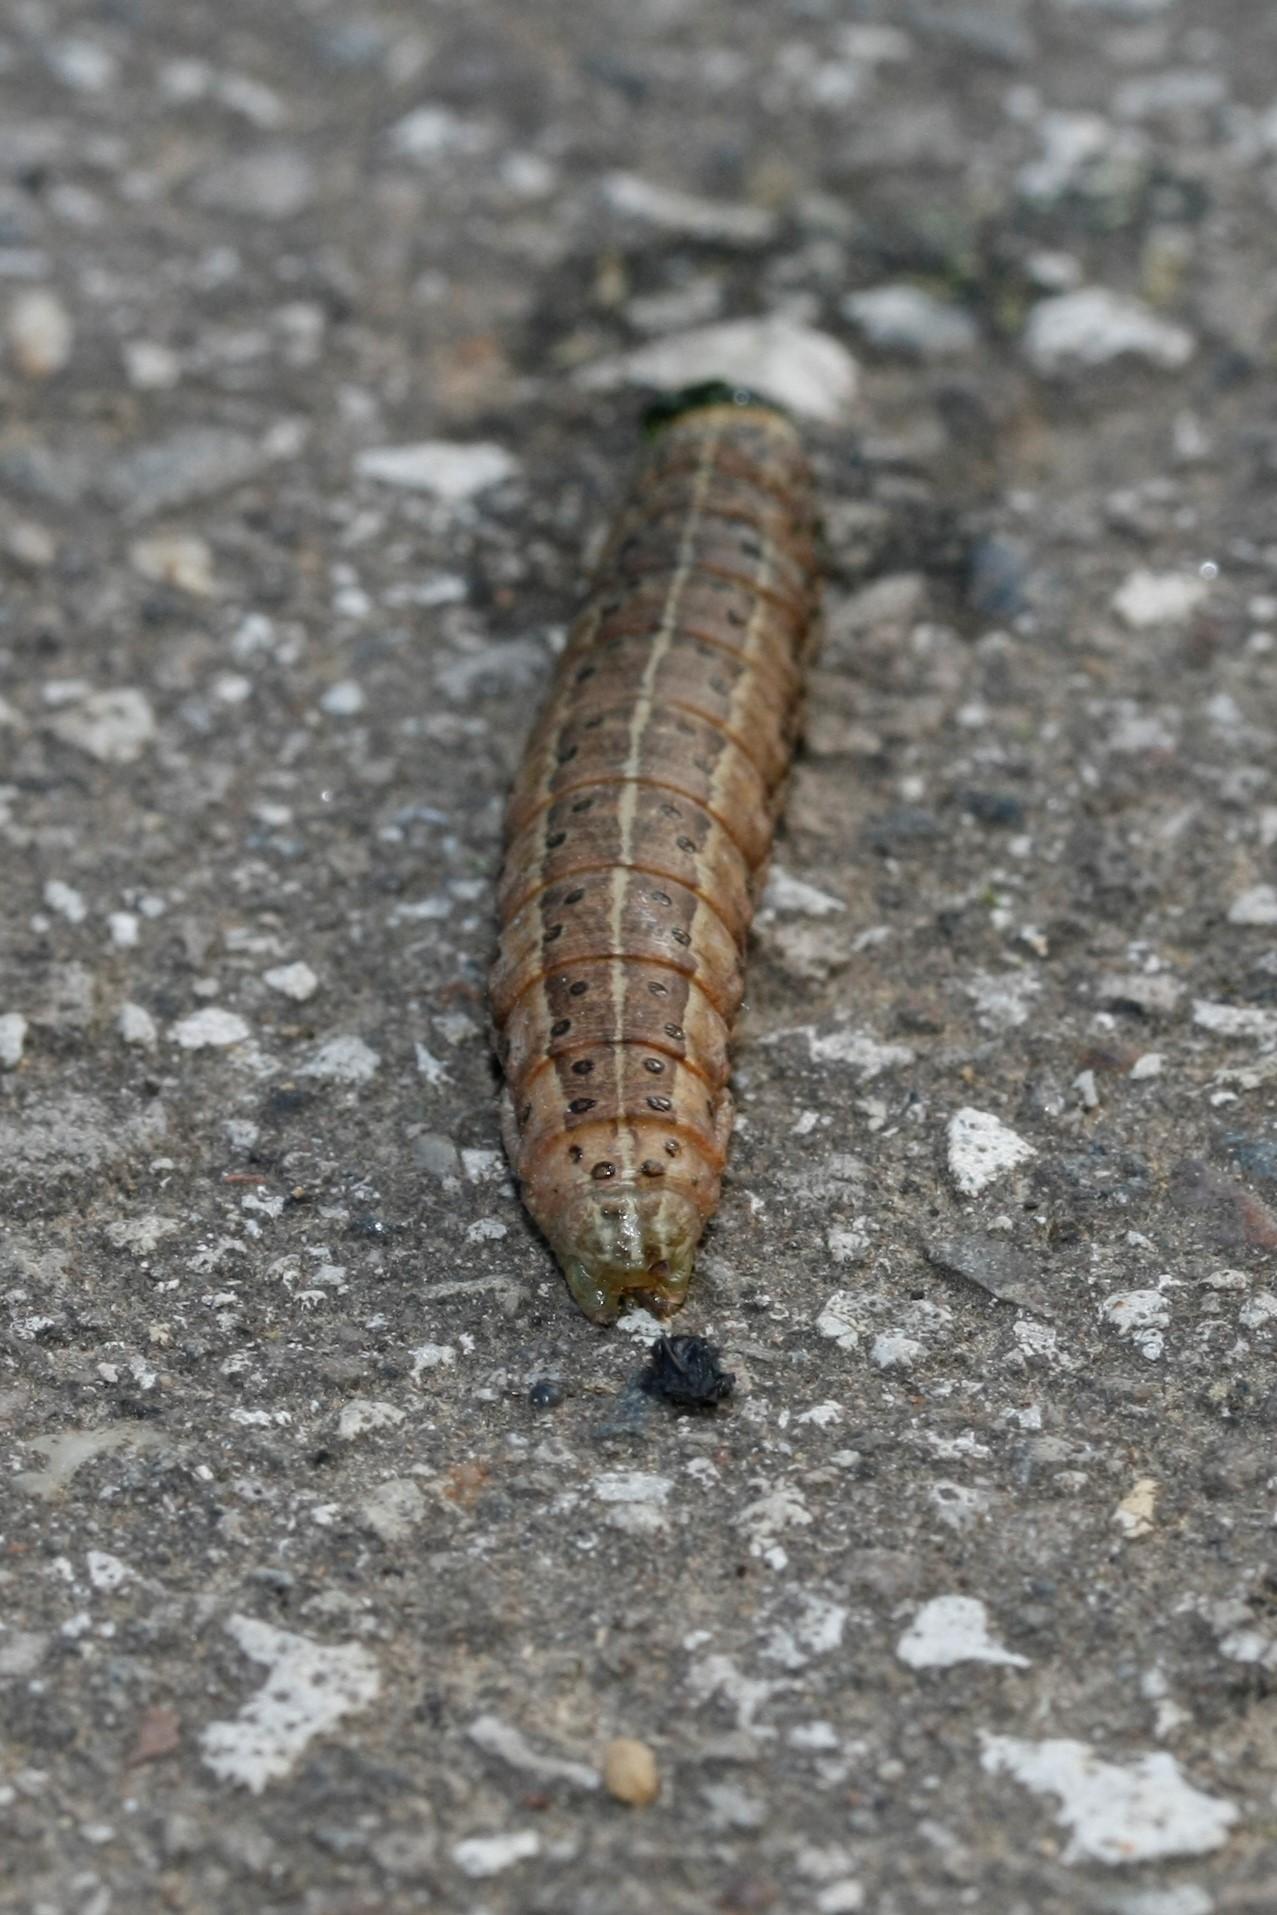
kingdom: Animalia
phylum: Arthropoda
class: Insecta
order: Lepidoptera
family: Noctuidae
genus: Agrochola
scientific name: Agrochola lunosa
